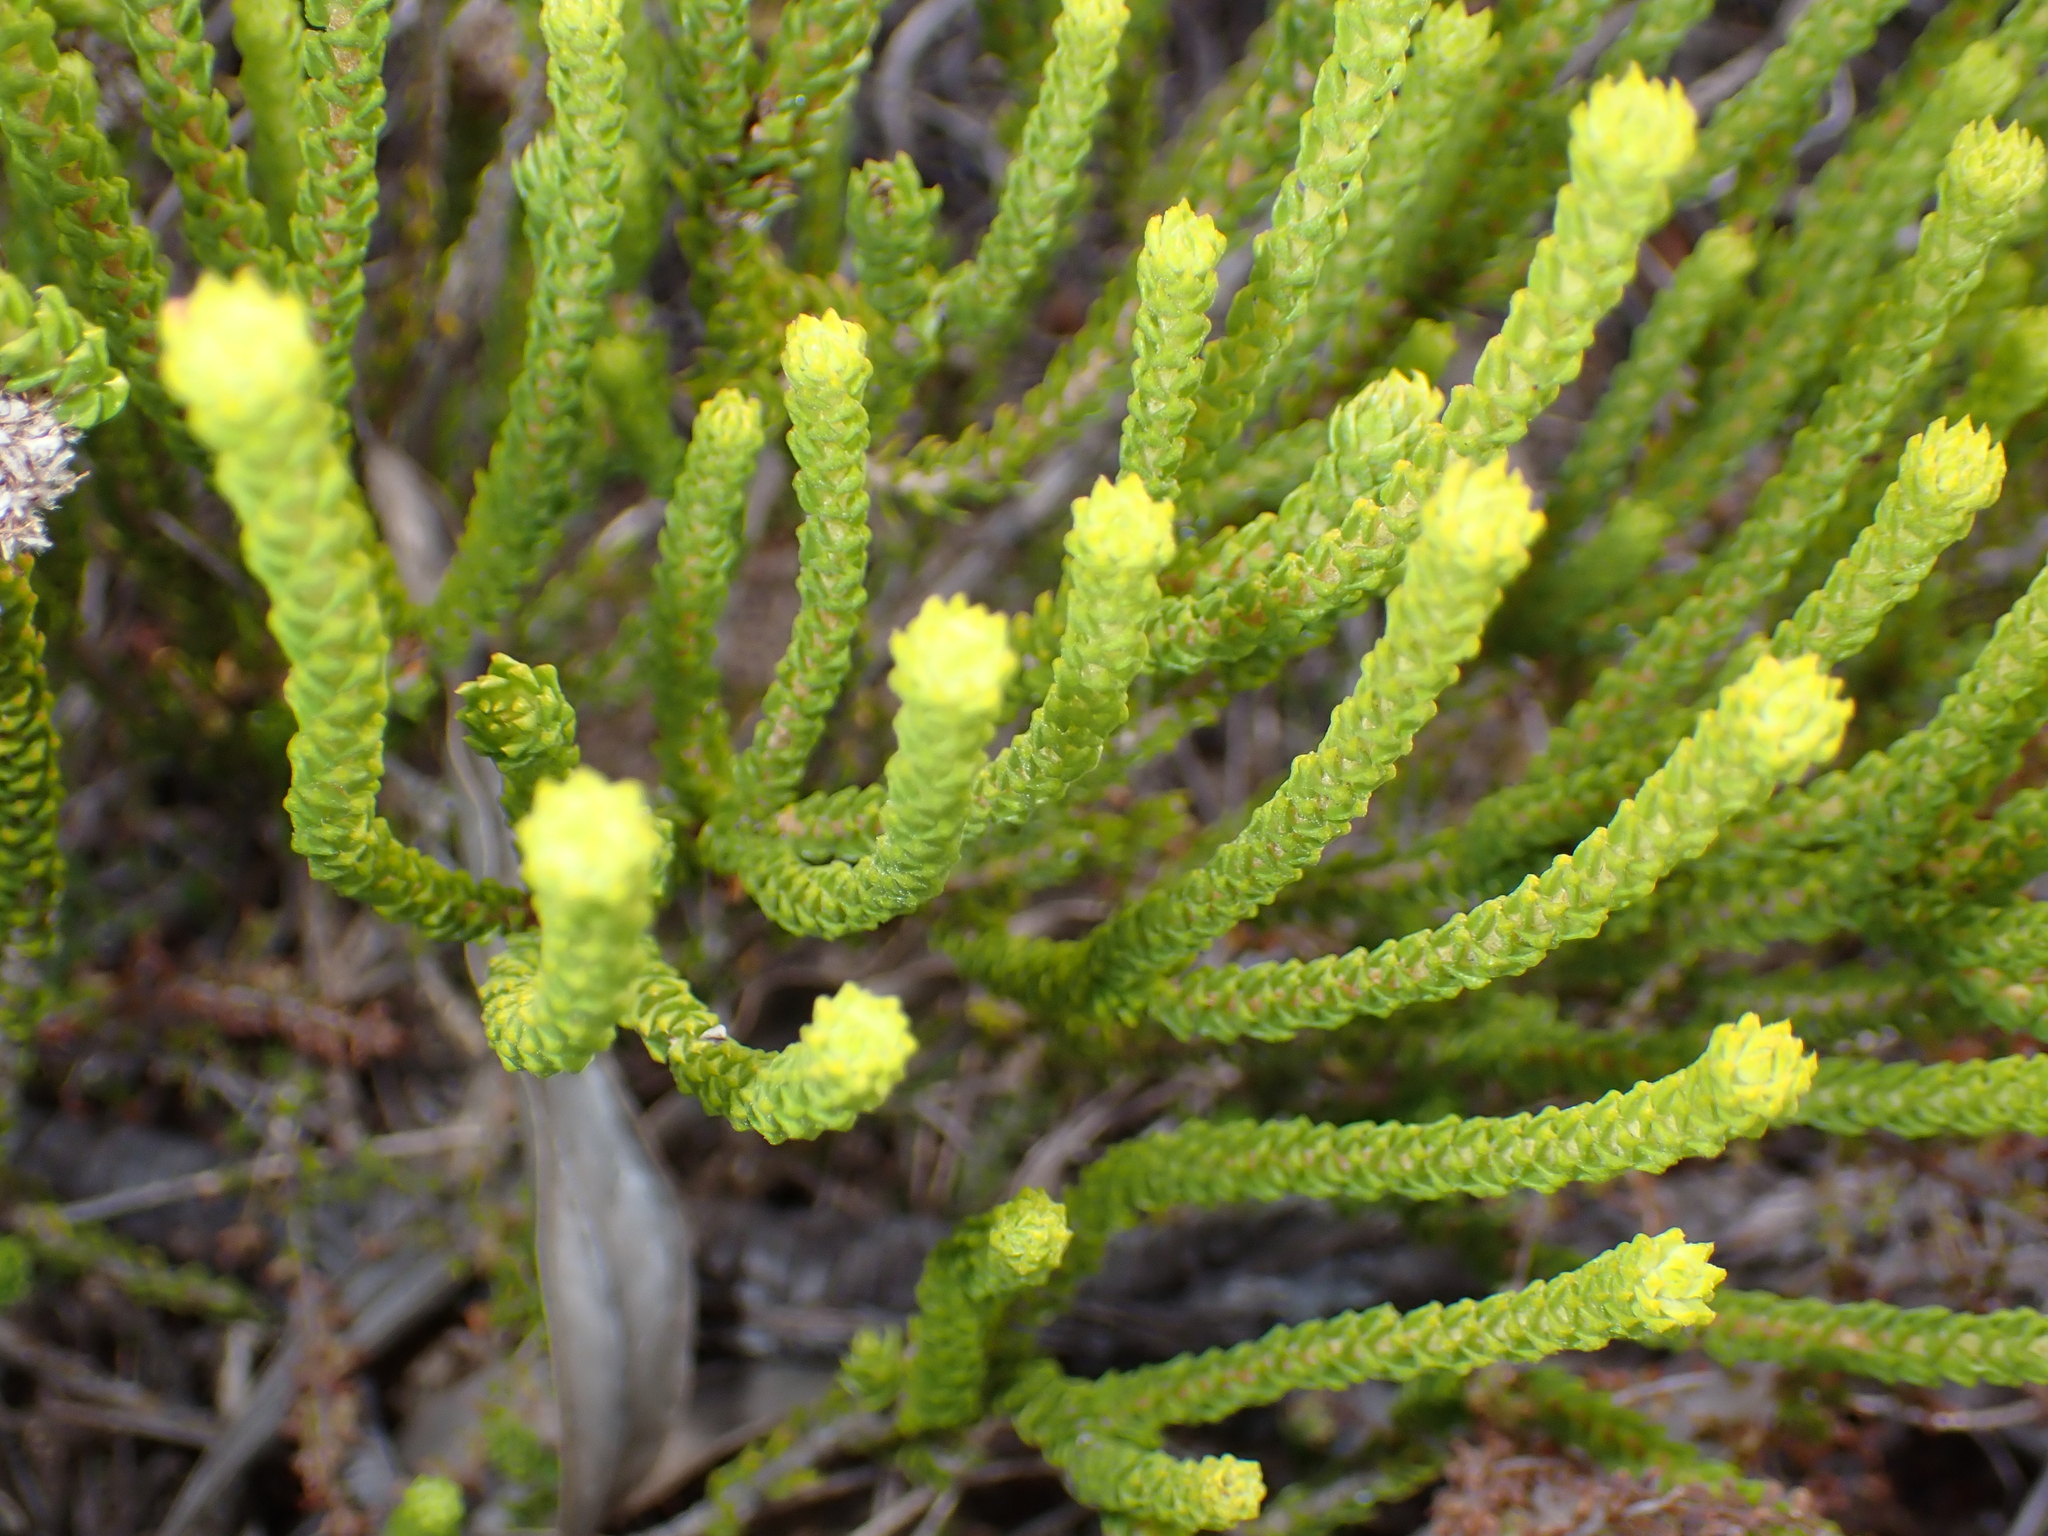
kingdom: Plantae
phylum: Tracheophyta
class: Magnoliopsida
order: Sapindales
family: Rutaceae
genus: Agathosma
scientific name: Agathosma imbricata
